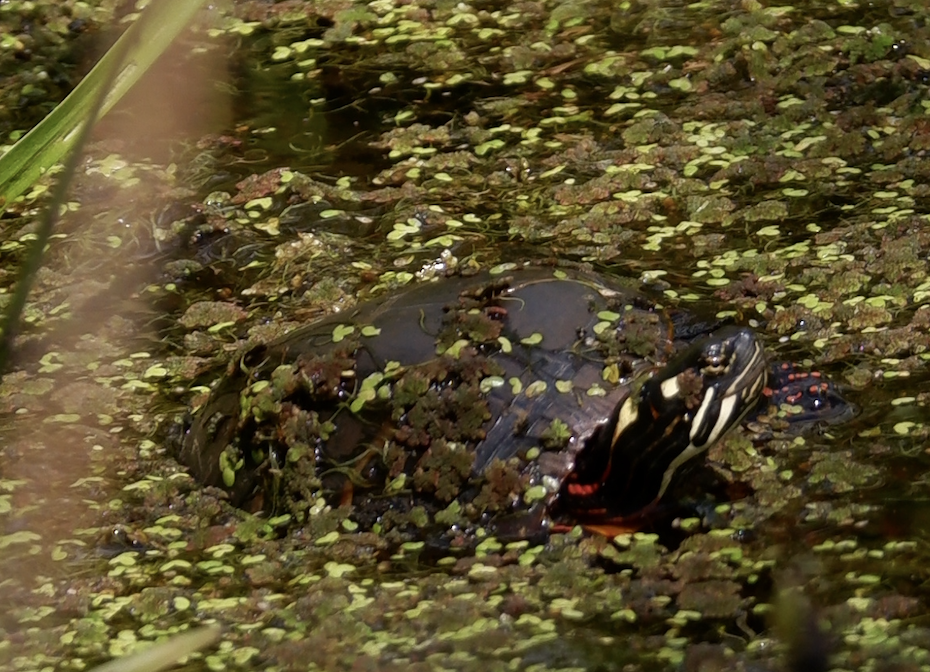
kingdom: Animalia
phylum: Chordata
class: Testudines
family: Emydidae
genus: Chrysemys
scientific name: Chrysemys picta
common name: Painted turtle
